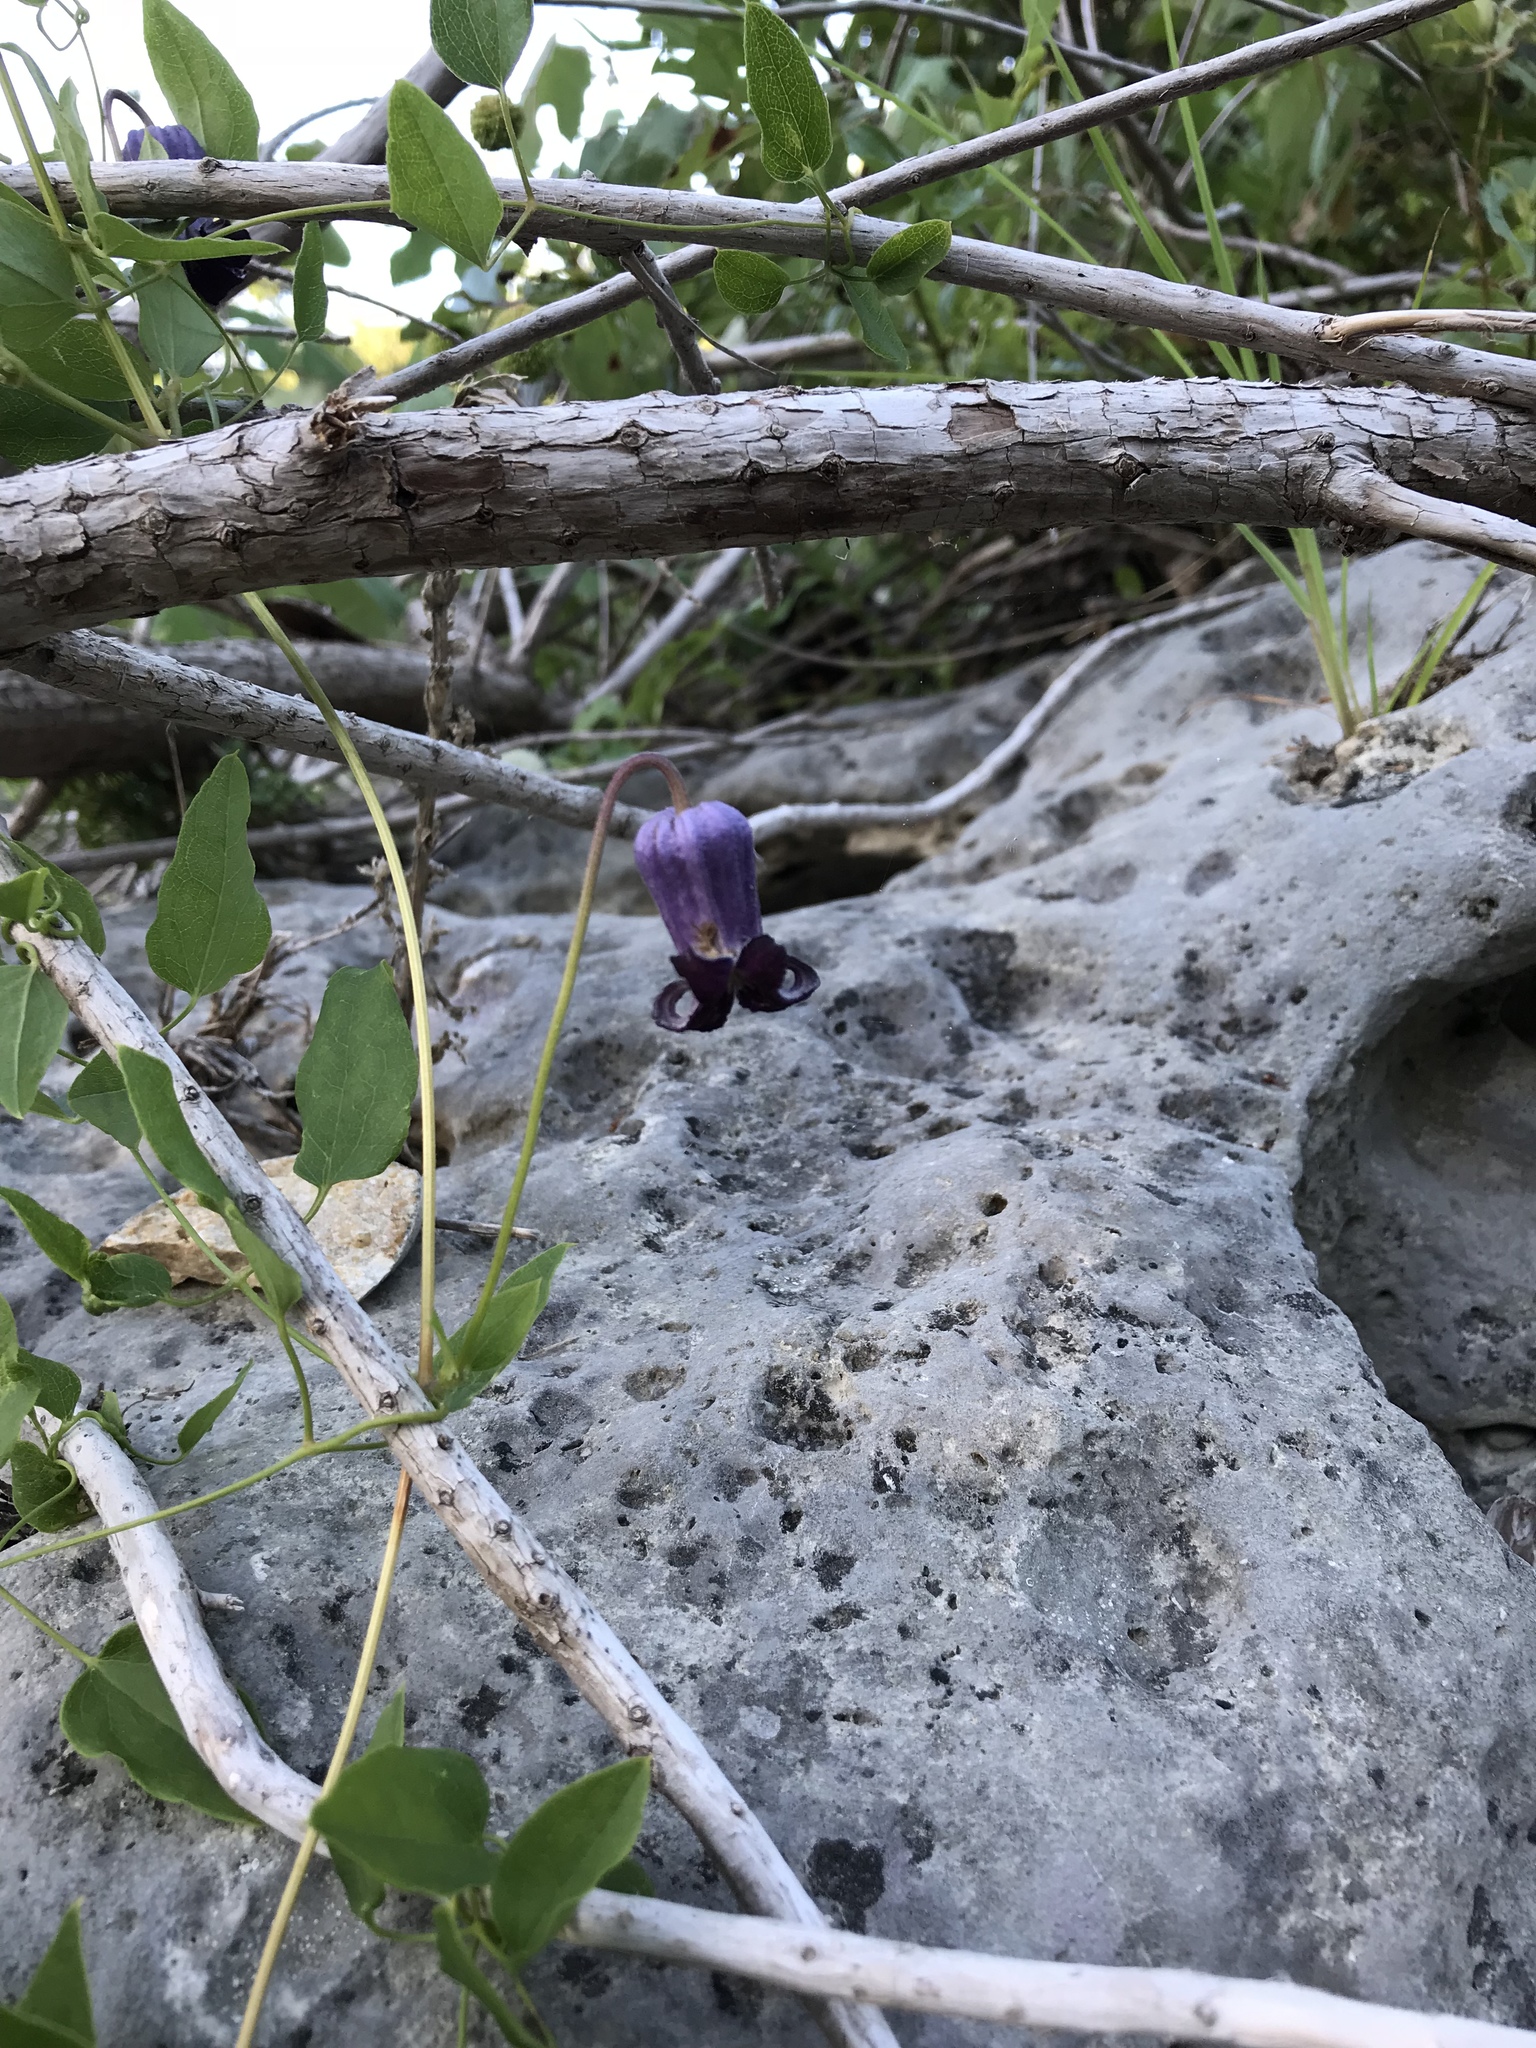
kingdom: Plantae
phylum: Tracheophyta
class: Magnoliopsida
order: Ranunculales
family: Ranunculaceae
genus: Clematis
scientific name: Clematis pitcheri
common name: Bellflower clematis
